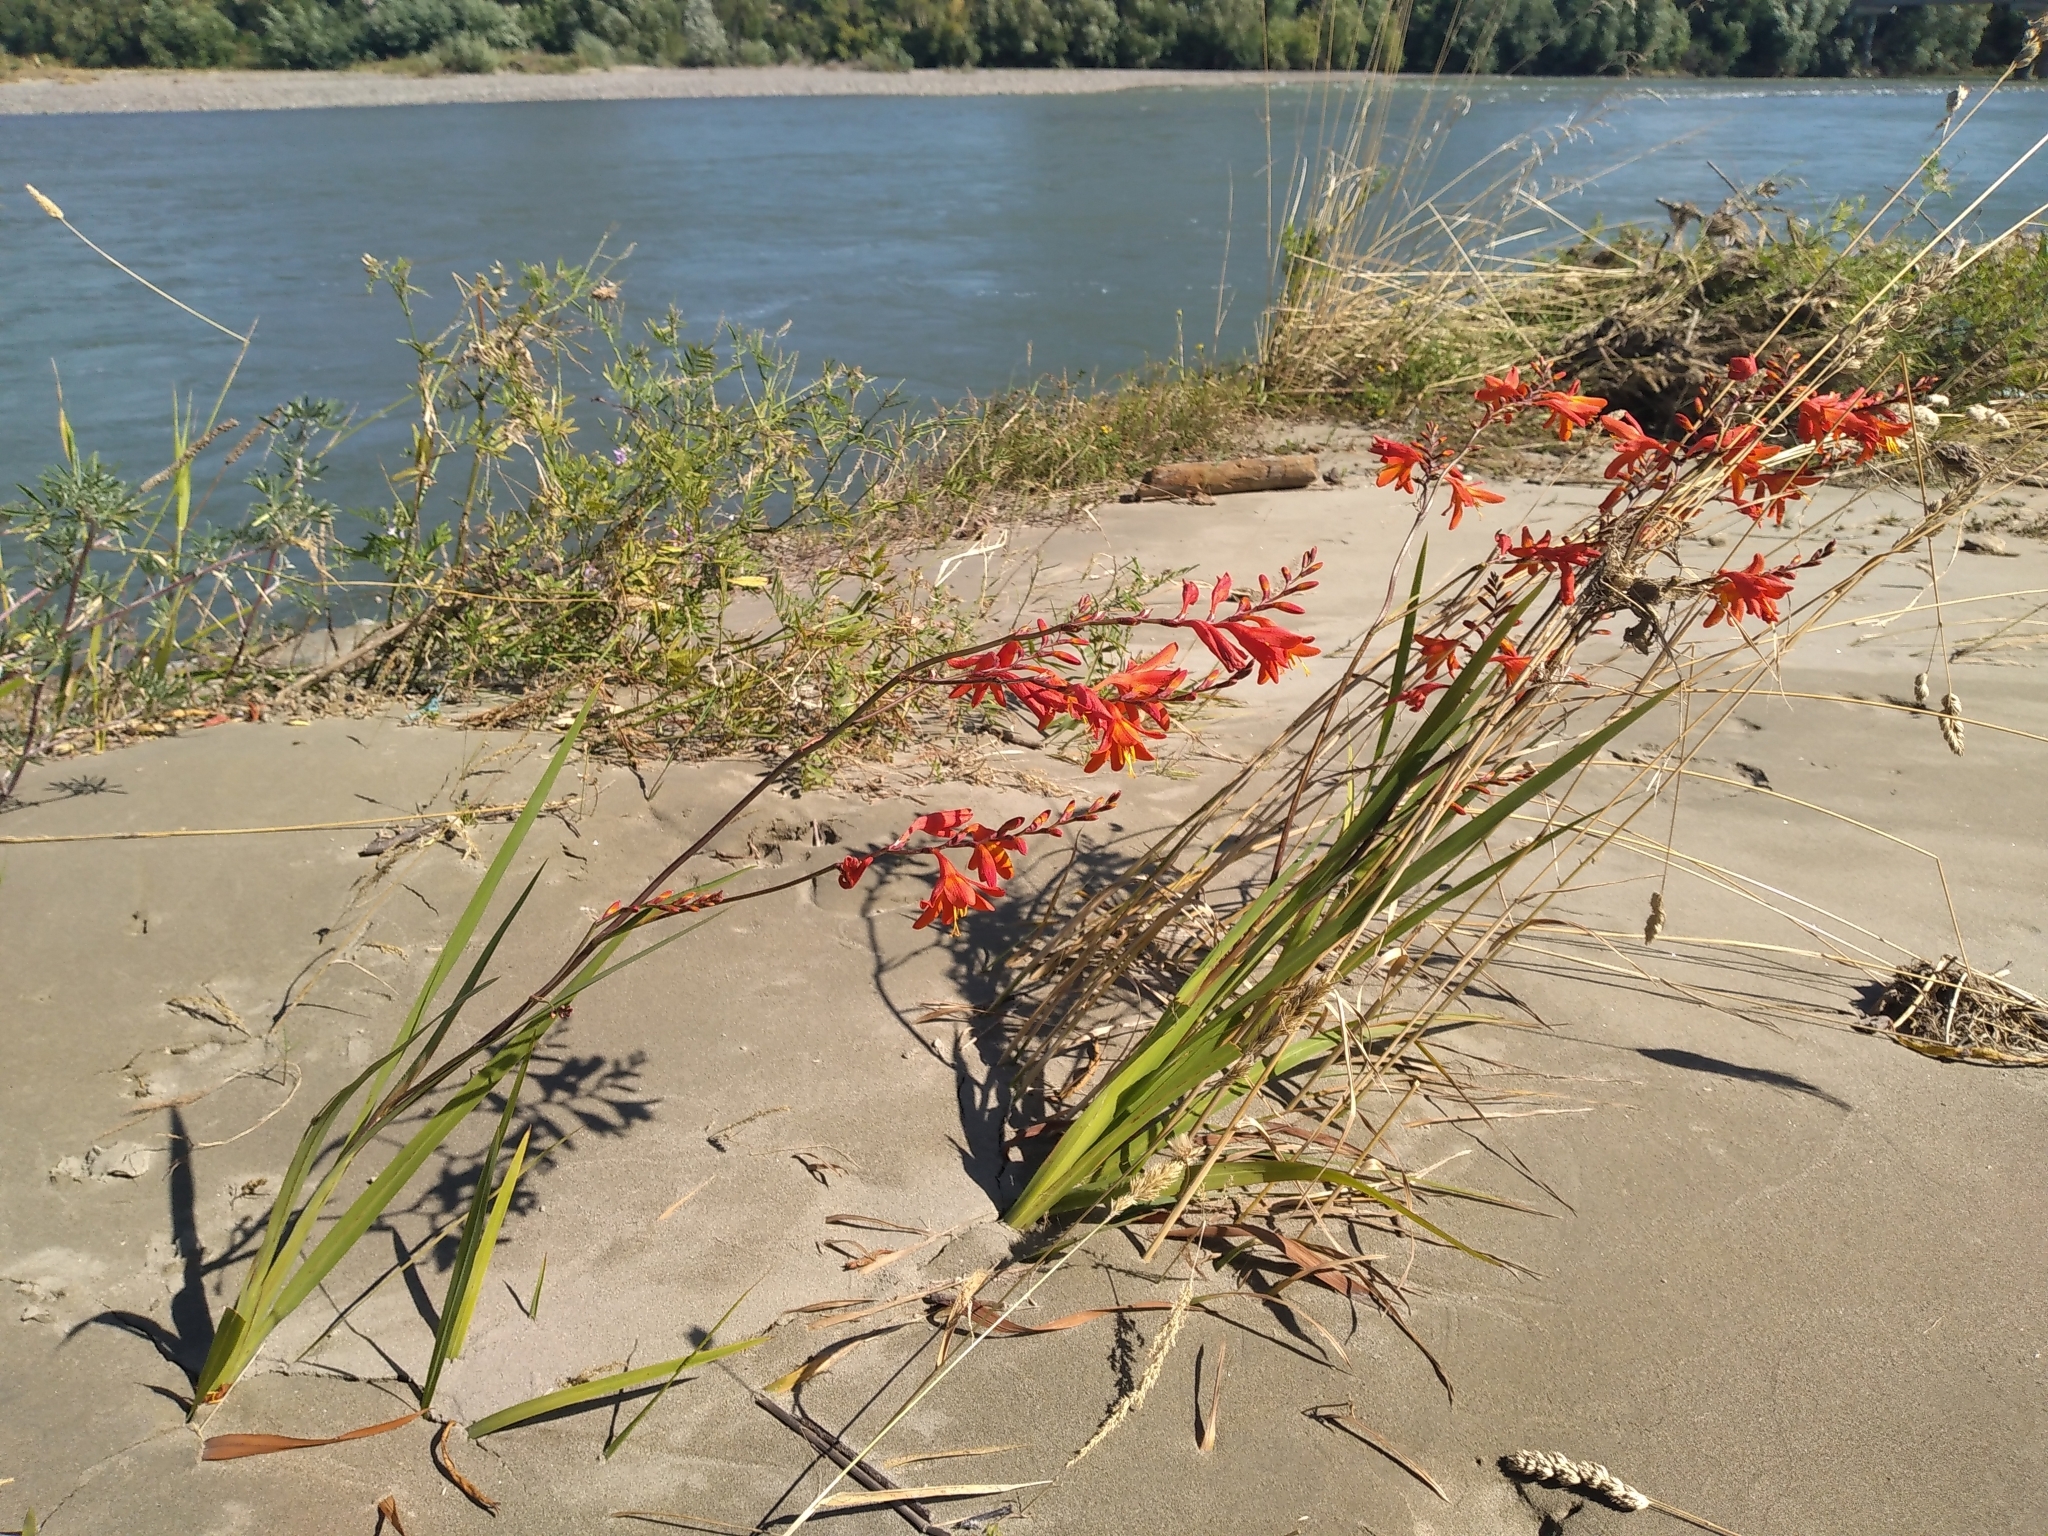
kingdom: Plantae
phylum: Tracheophyta
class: Liliopsida
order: Asparagales
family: Iridaceae
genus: Crocosmia
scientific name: Crocosmia crocosmiiflora
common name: Montbretia
